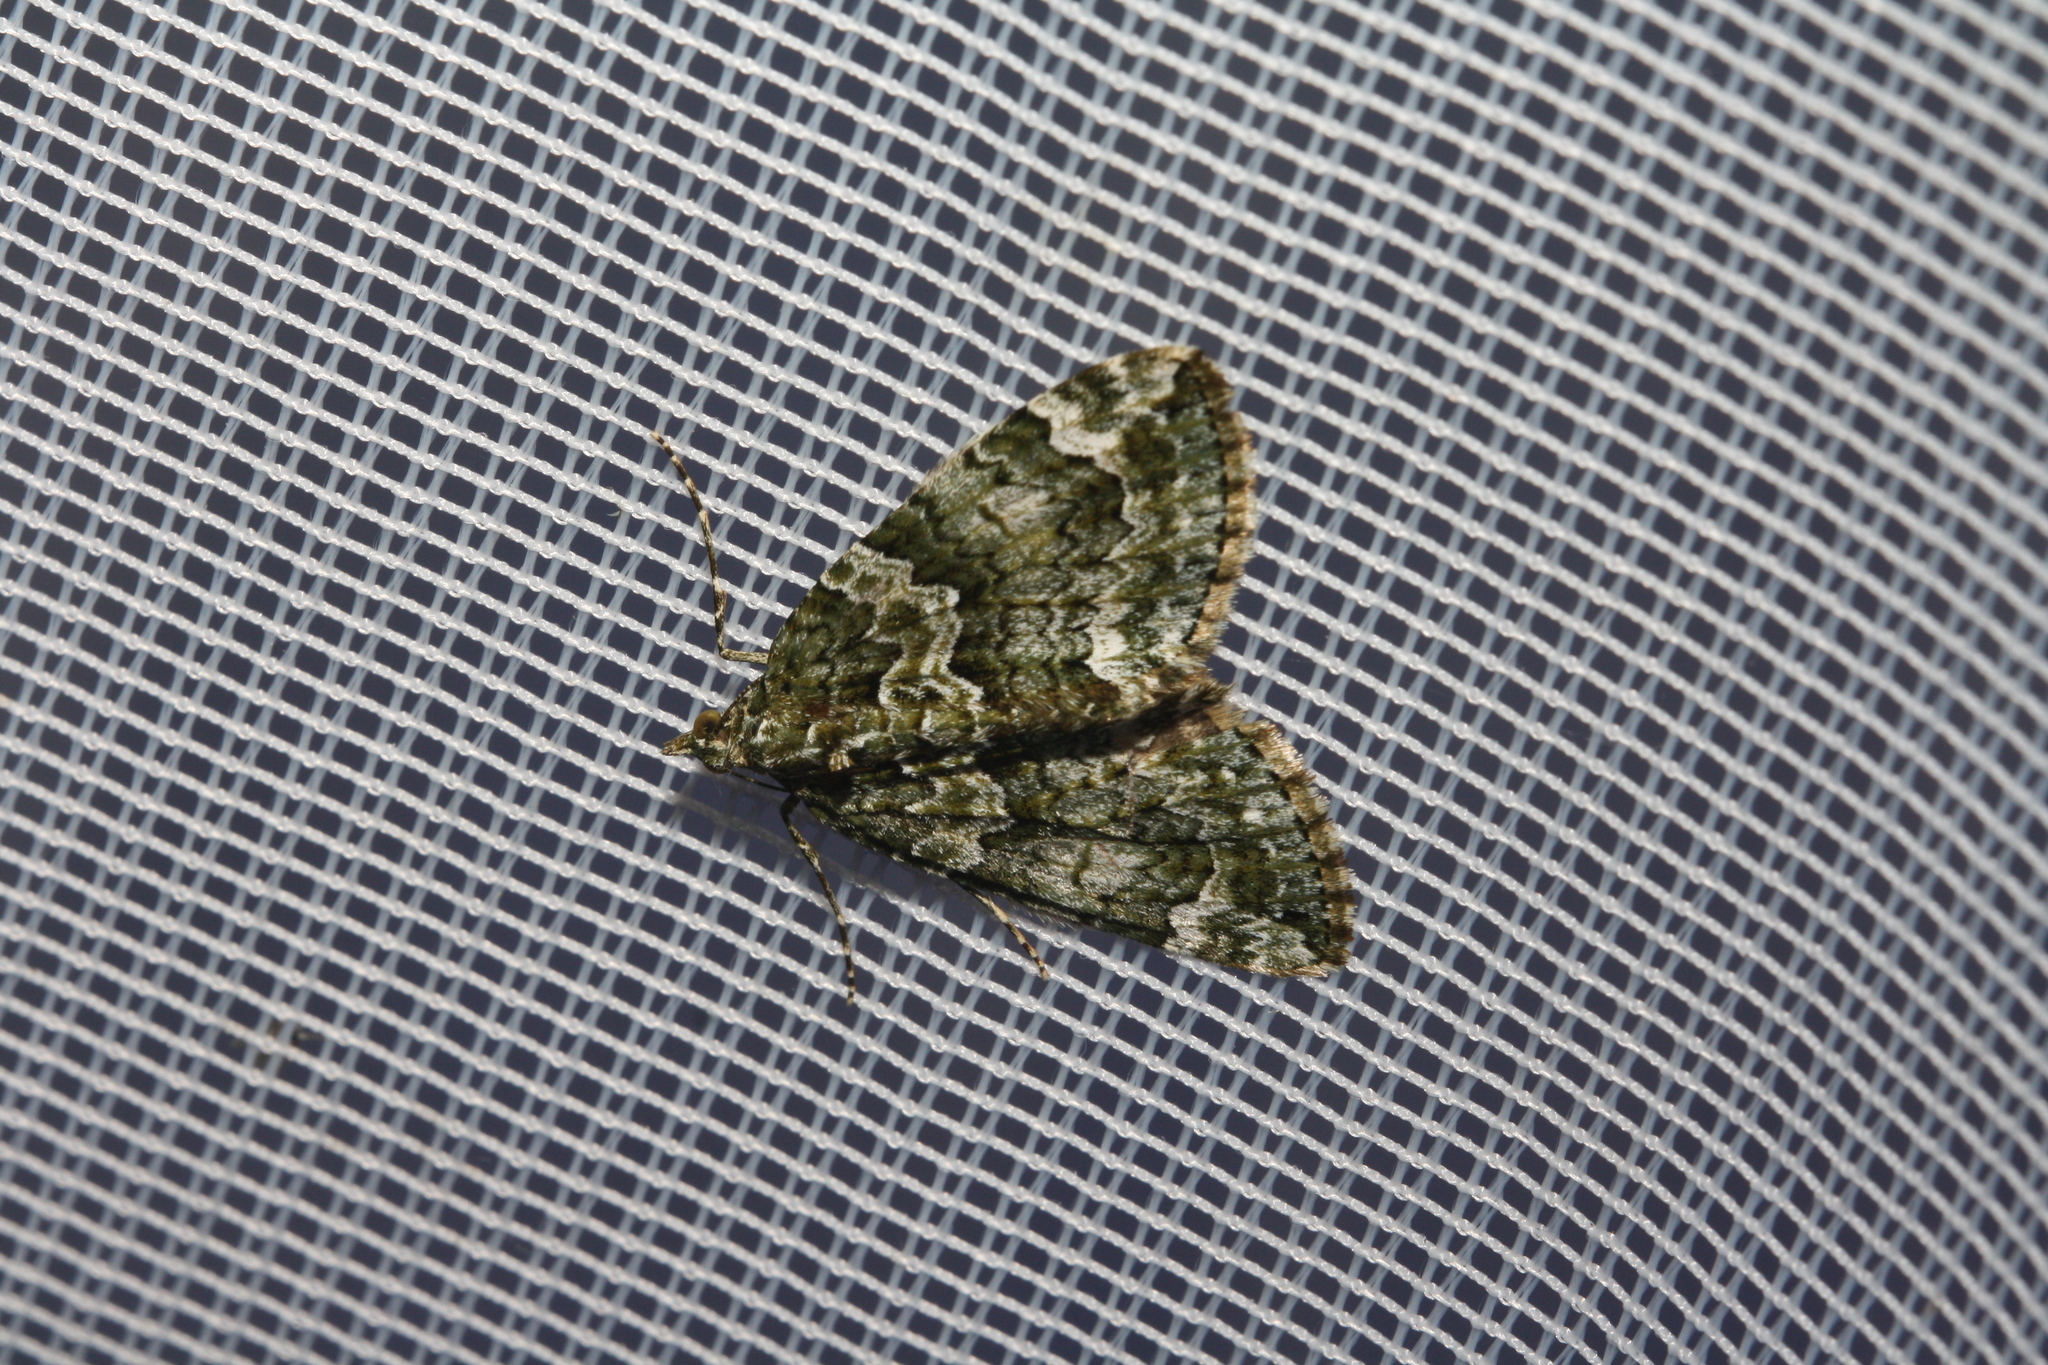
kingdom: Animalia
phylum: Arthropoda
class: Insecta
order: Lepidoptera
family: Geometridae
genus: Chloroclysta
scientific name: Chloroclysta siterata
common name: Red-green carpet
